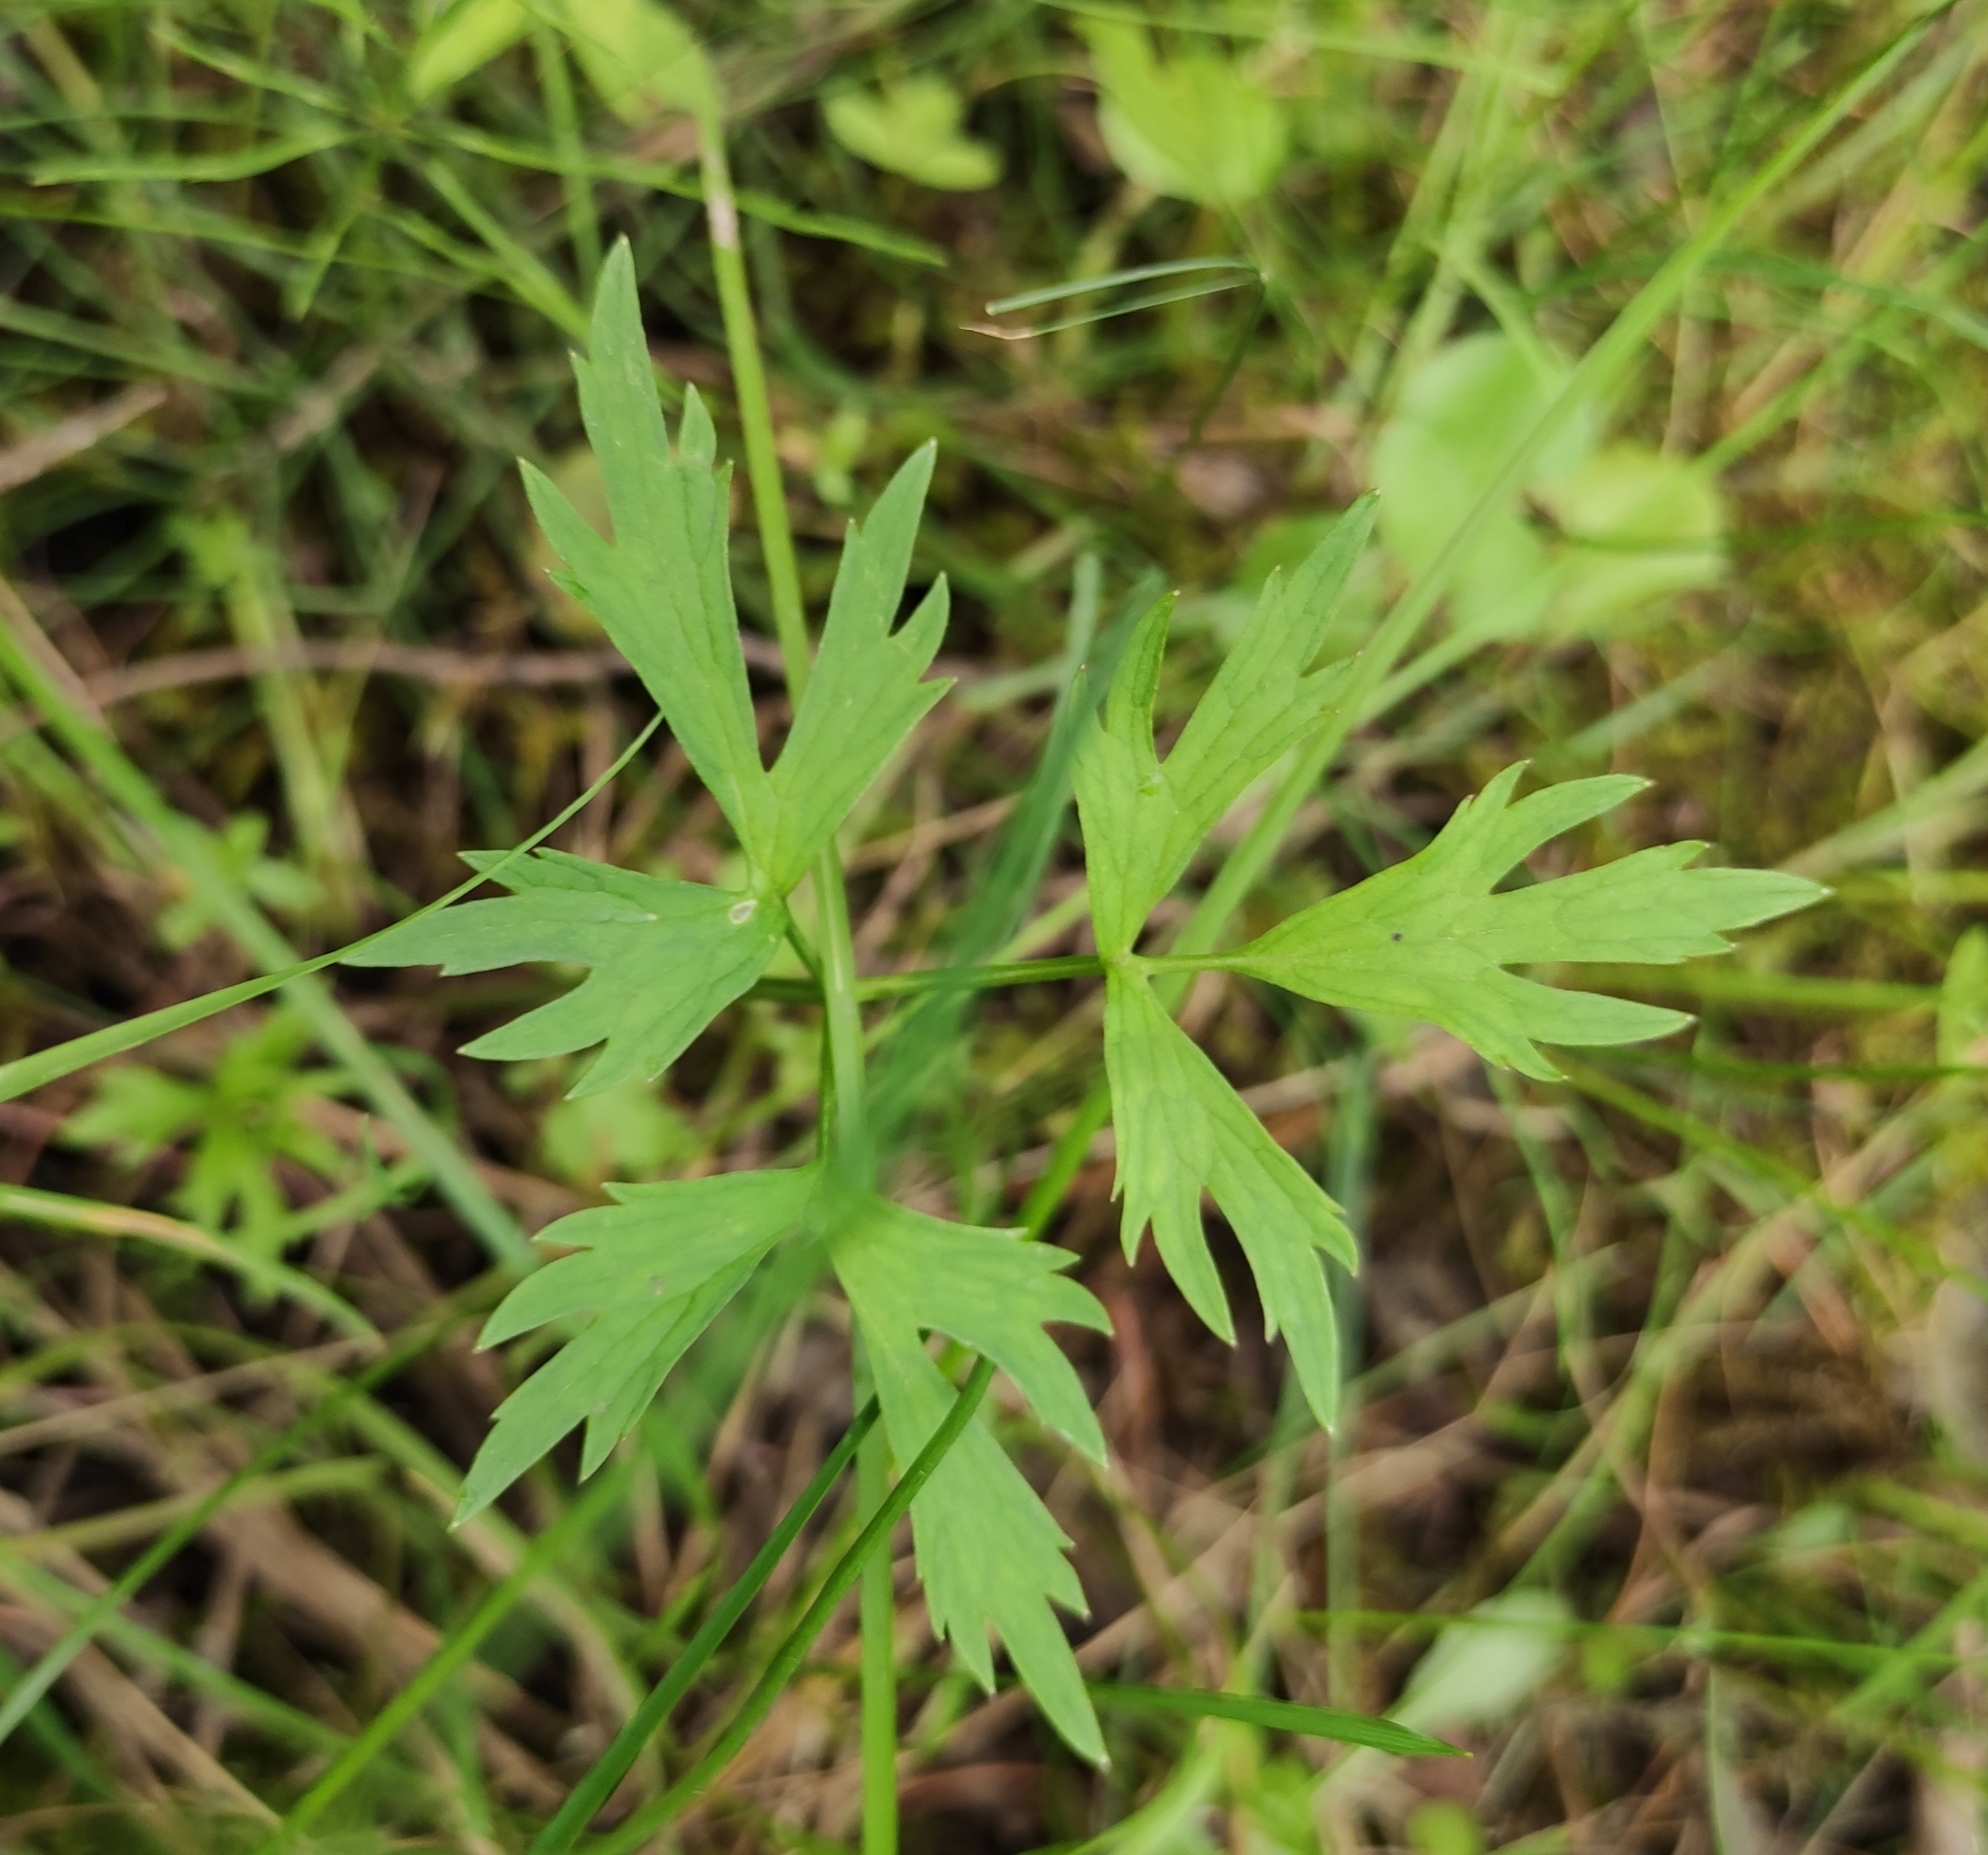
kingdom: Plantae
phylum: Tracheophyta
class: Magnoliopsida
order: Ranunculales
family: Ranunculaceae
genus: Ranunculus
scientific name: Ranunculus repens
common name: Creeping buttercup
